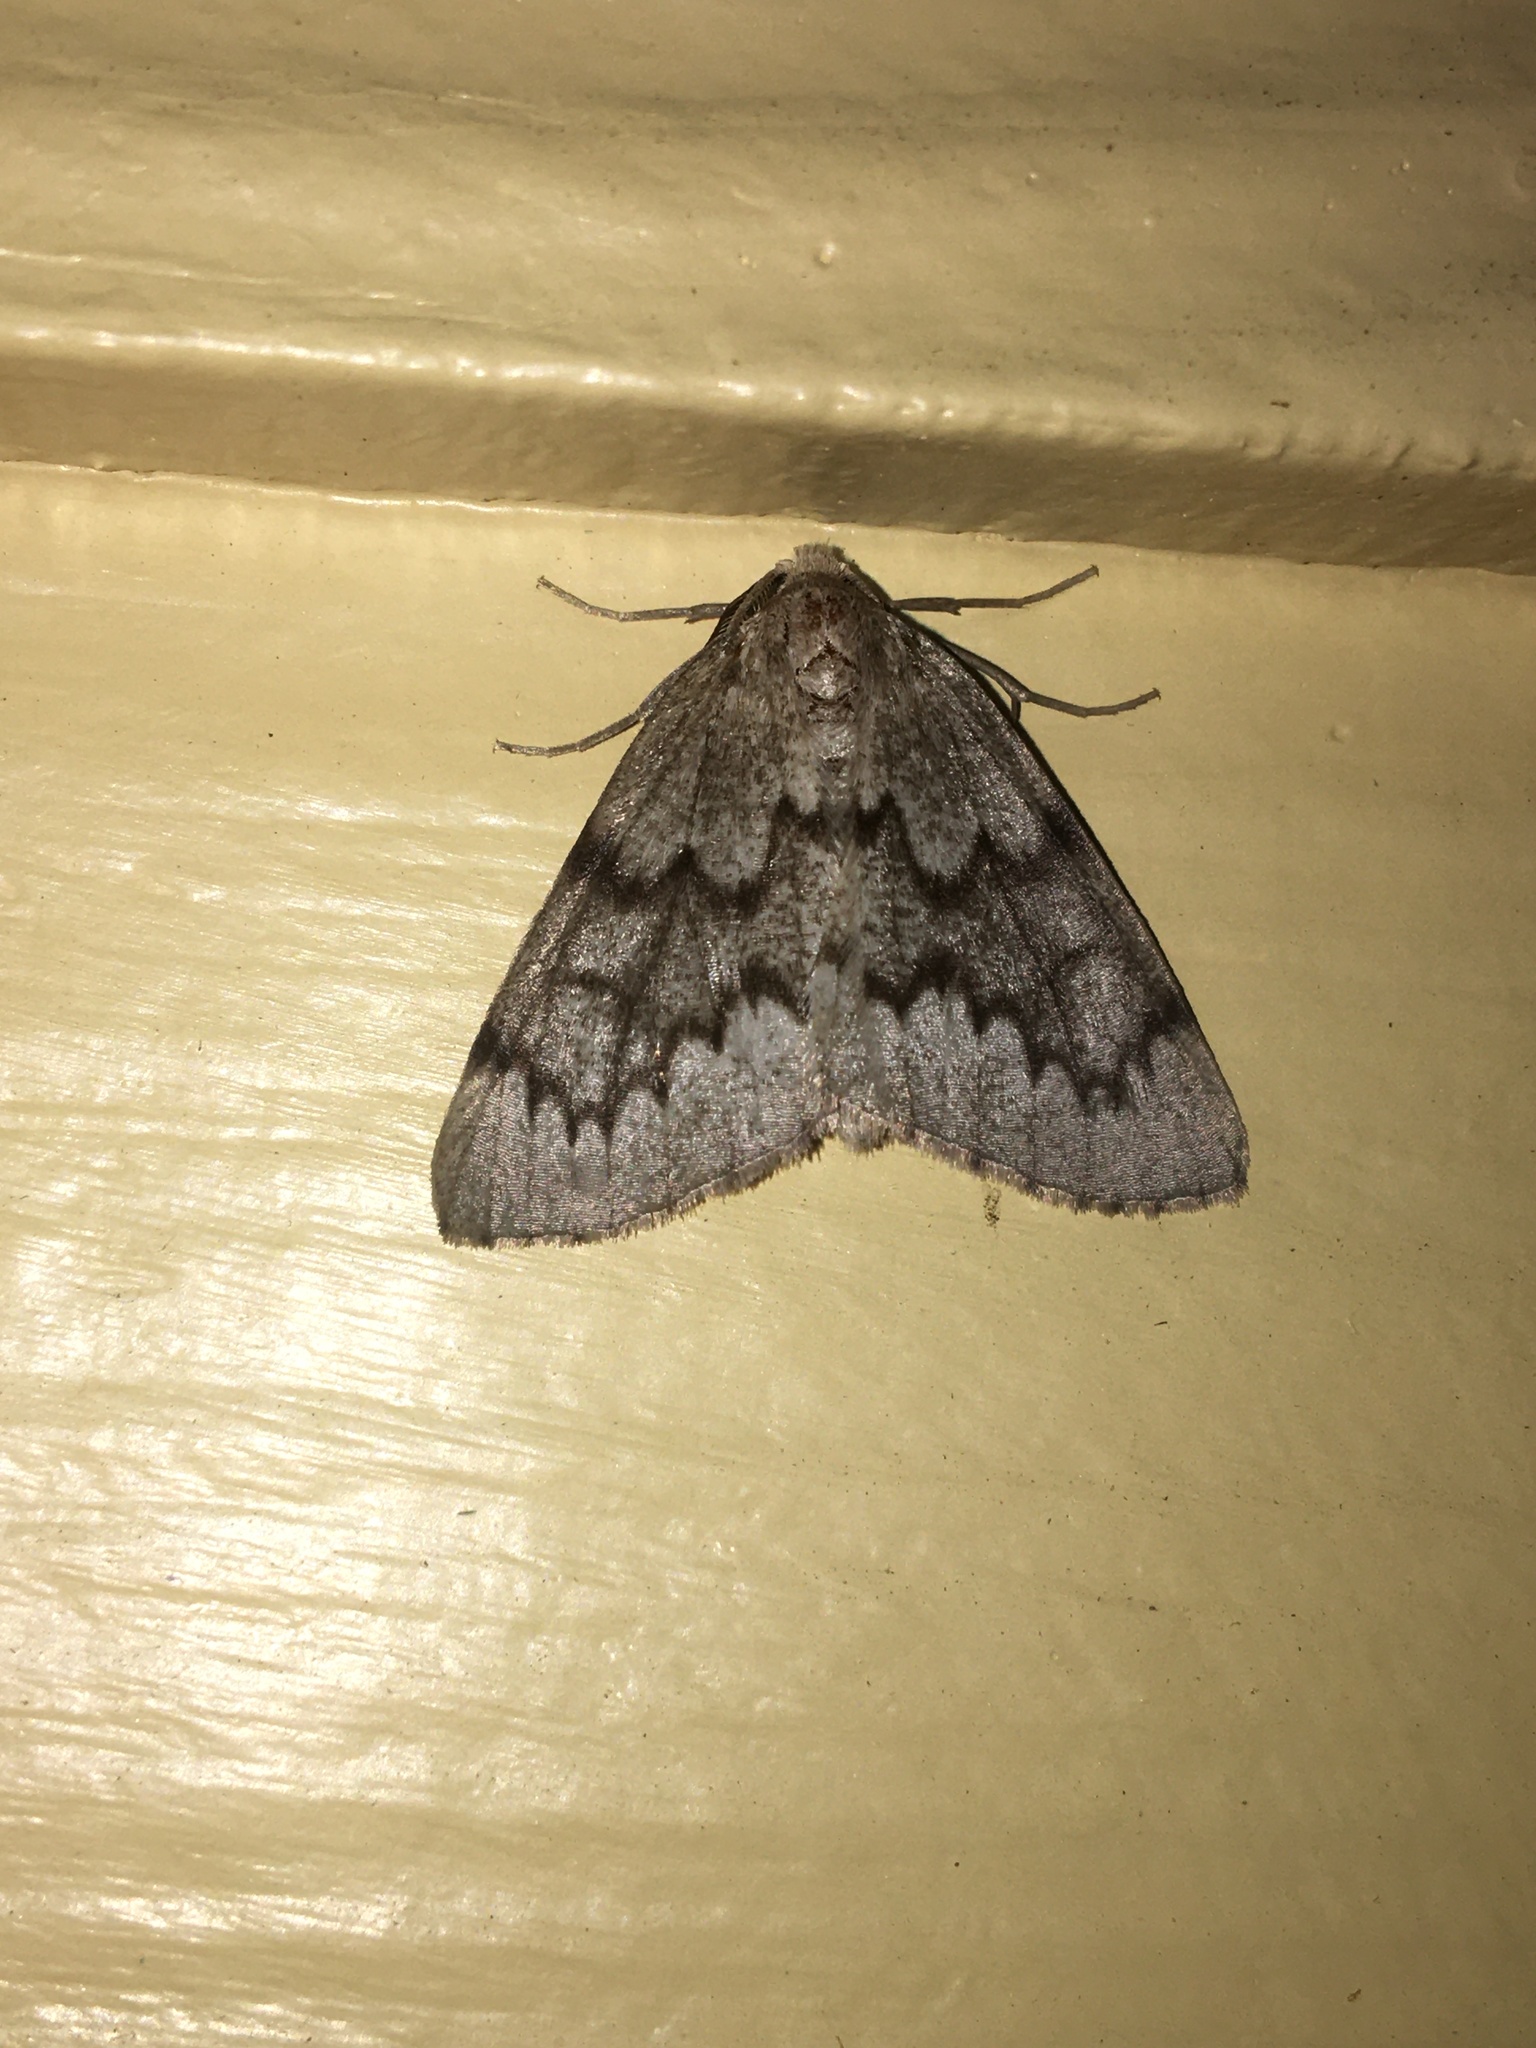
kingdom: Animalia
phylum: Arthropoda
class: Insecta
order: Lepidoptera
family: Geometridae
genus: Nepytia
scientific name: Nepytia semiclusaria
